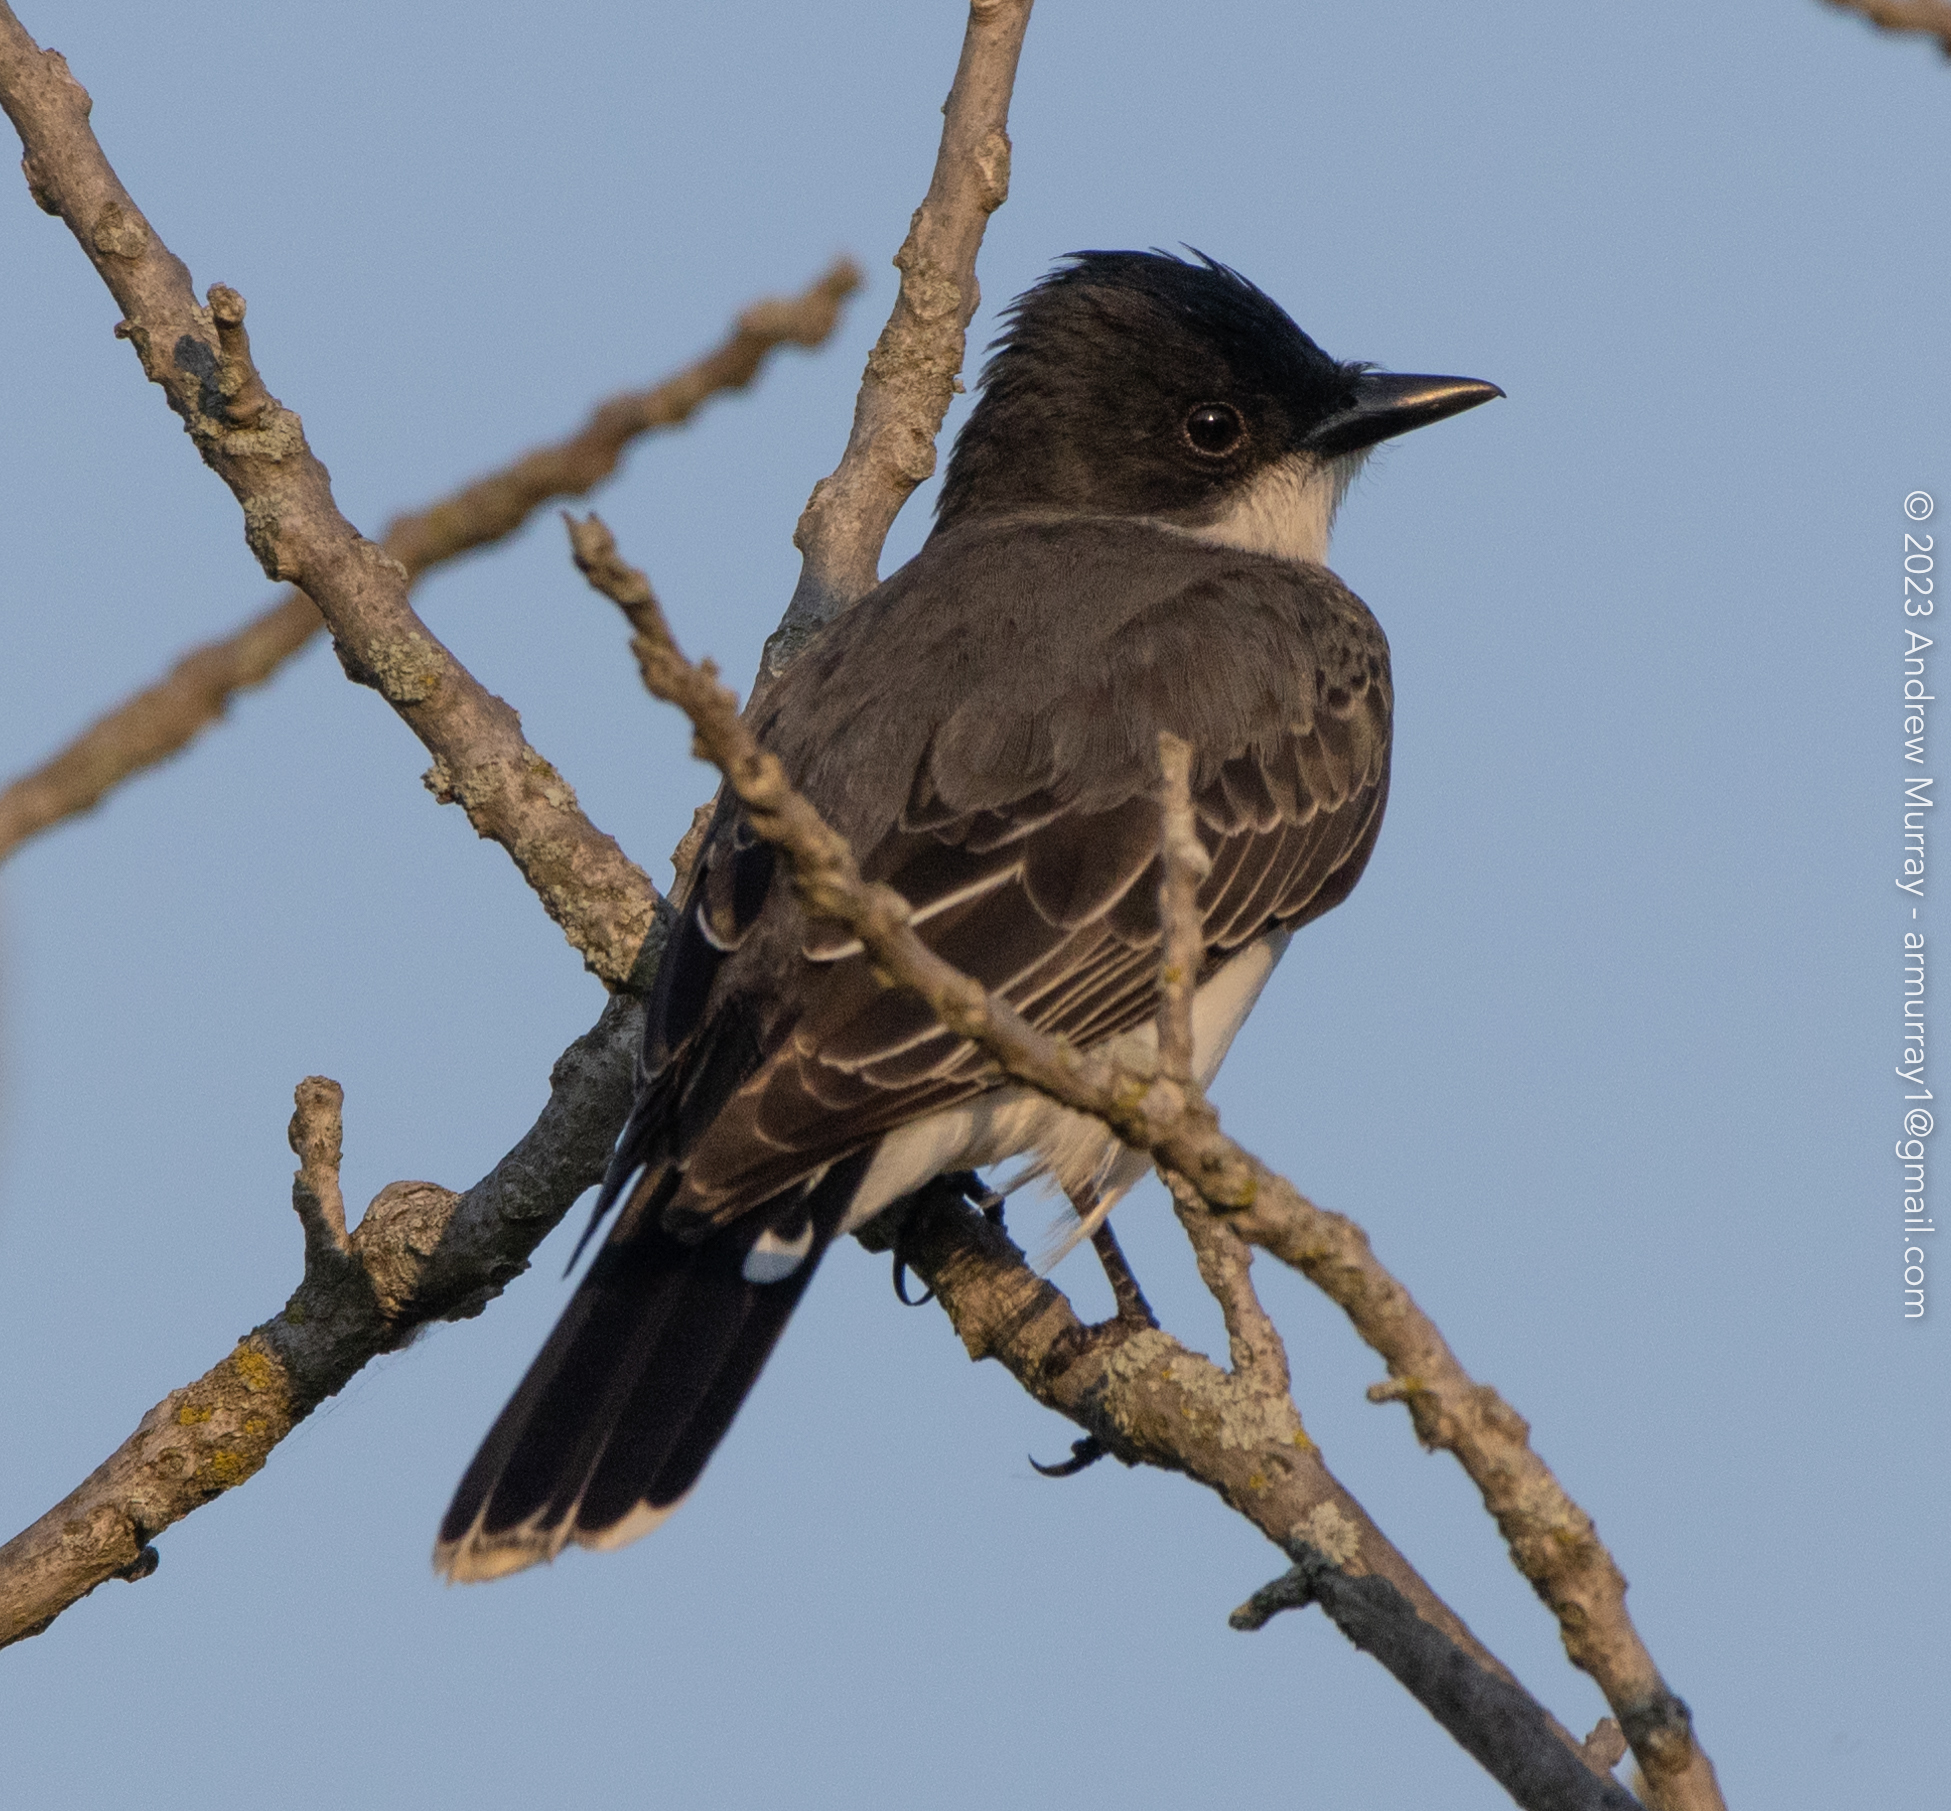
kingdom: Animalia
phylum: Chordata
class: Aves
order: Passeriformes
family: Tyrannidae
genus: Tyrannus
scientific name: Tyrannus tyrannus
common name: Eastern kingbird
